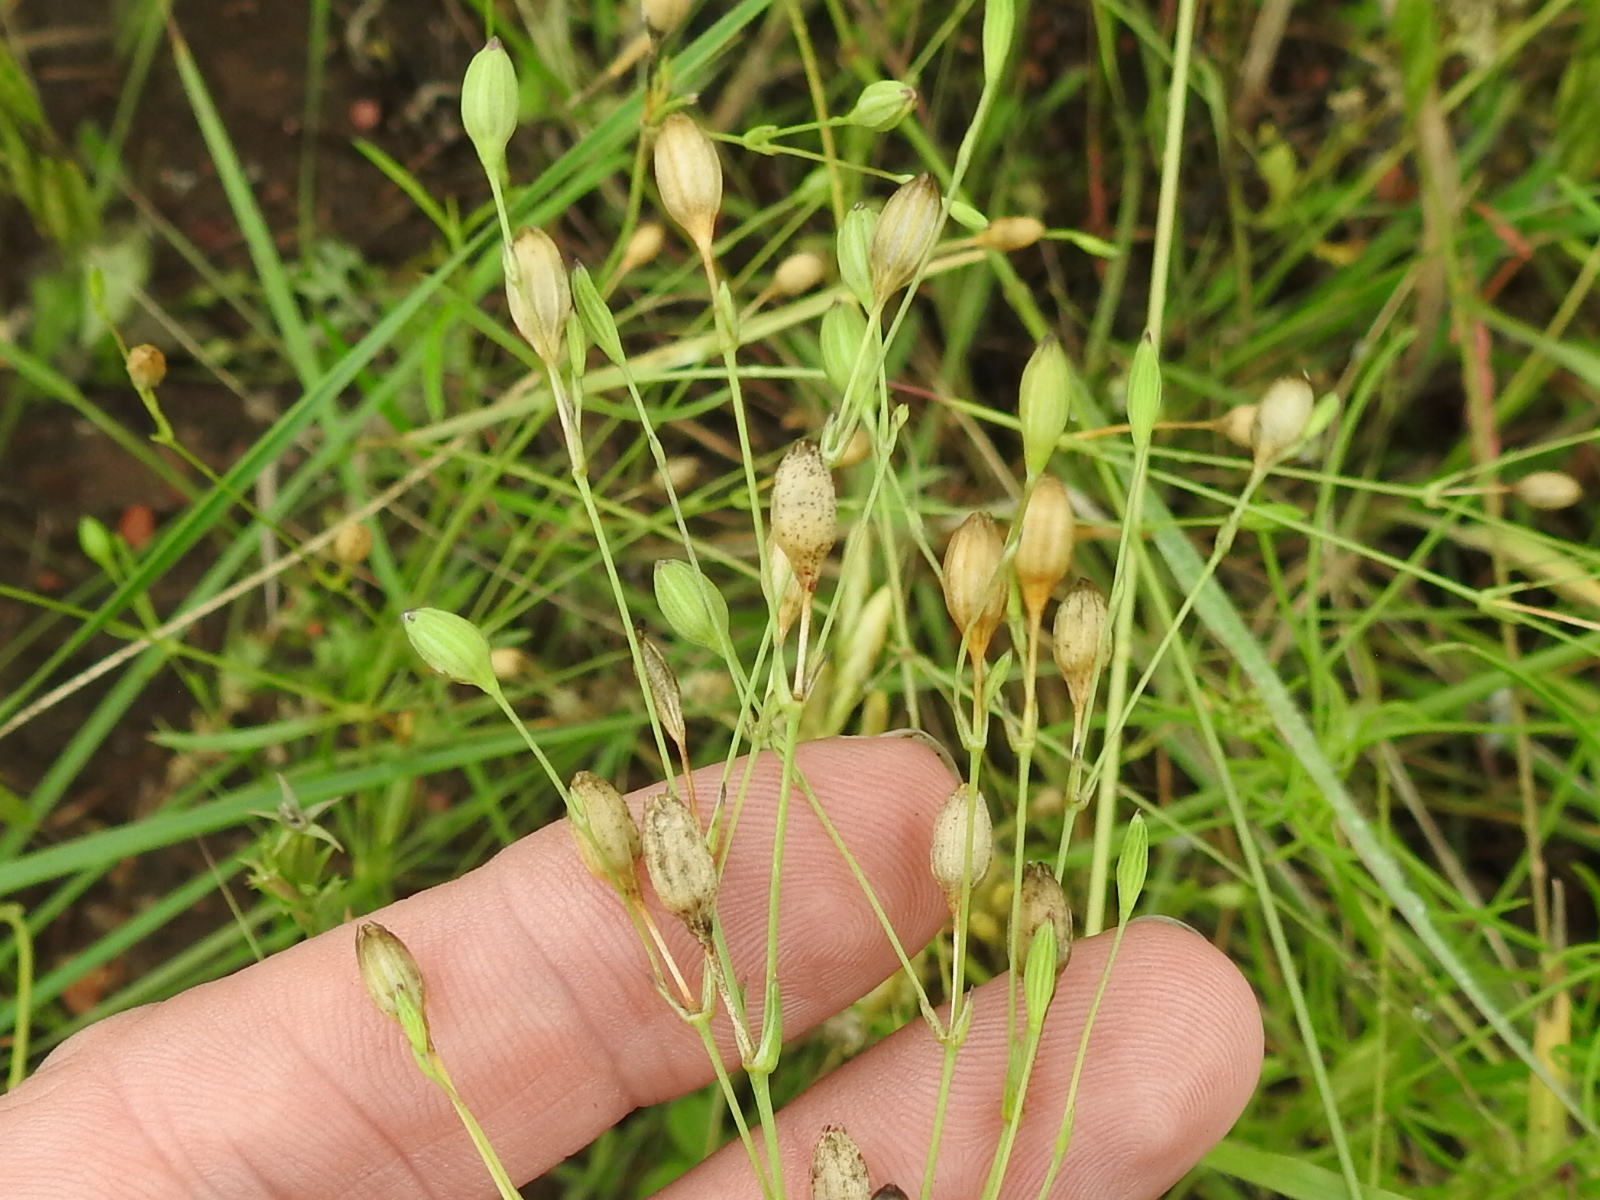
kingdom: Plantae
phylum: Tracheophyta
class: Magnoliopsida
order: Caryophyllales
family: Caryophyllaceae
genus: Silene
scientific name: Silene antirrhina
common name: Sleepy catchfly
